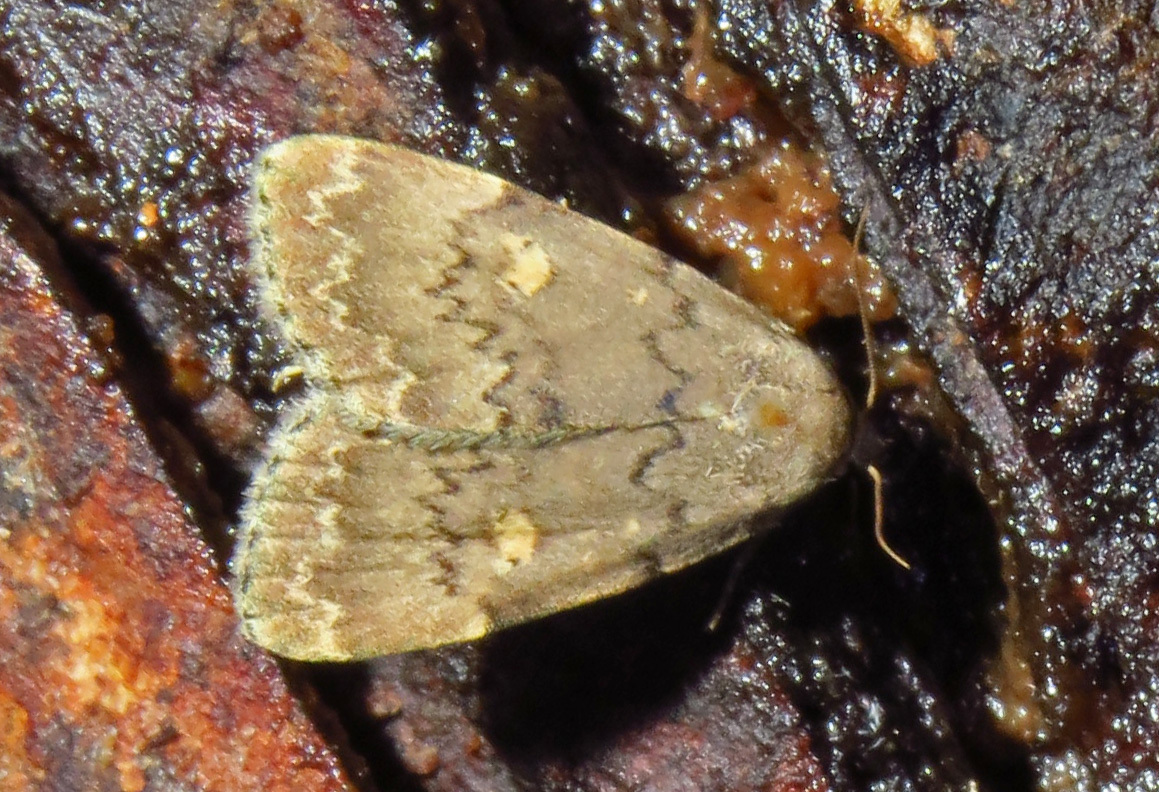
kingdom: Animalia
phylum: Arthropoda
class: Insecta
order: Lepidoptera
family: Erebidae
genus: Idia
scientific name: Idia aemula
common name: Common idia moth
